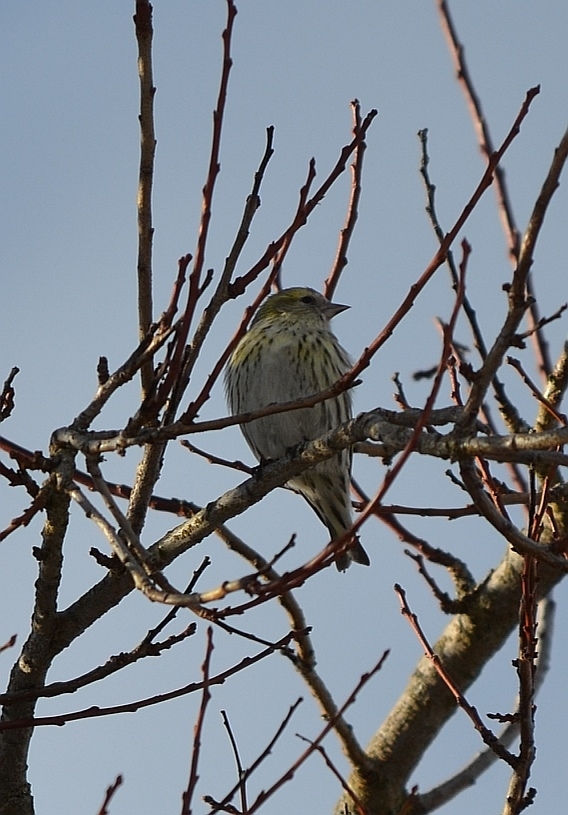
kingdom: Animalia
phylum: Chordata
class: Aves
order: Passeriformes
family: Fringillidae
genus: Spinus
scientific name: Spinus spinus
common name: Eurasian siskin
